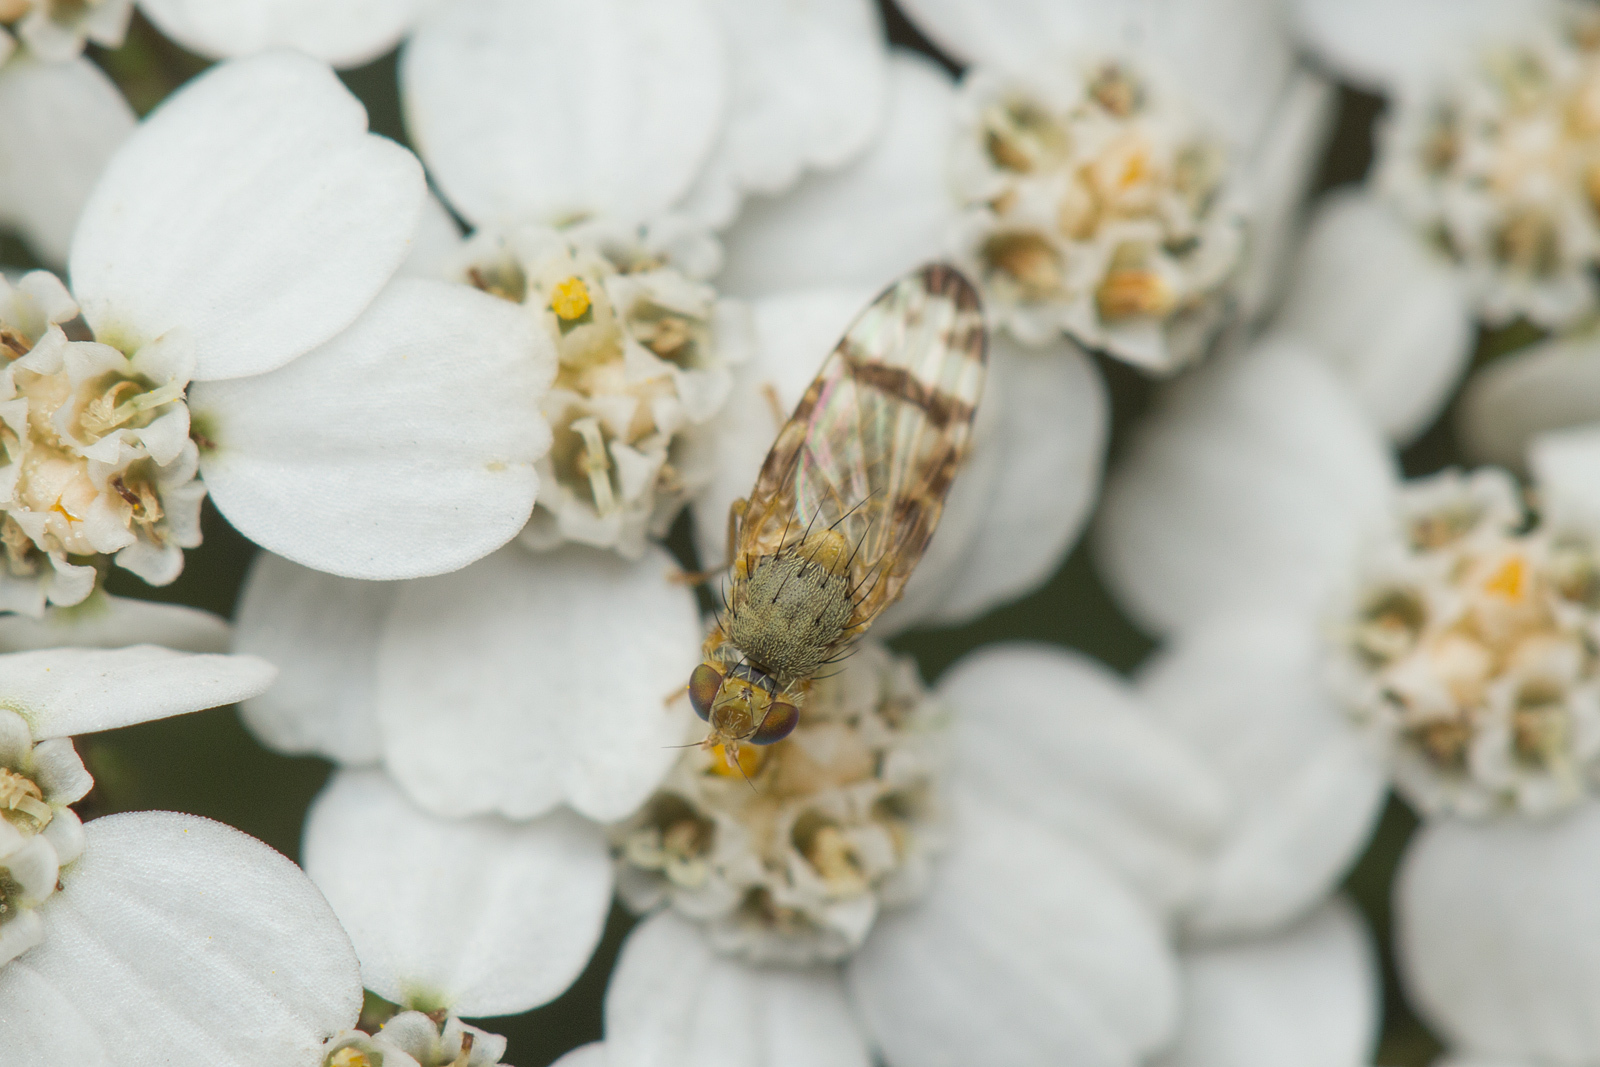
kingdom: Animalia
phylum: Arthropoda
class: Insecta
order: Diptera
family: Tephritidae
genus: Sphenella
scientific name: Sphenella marginata
